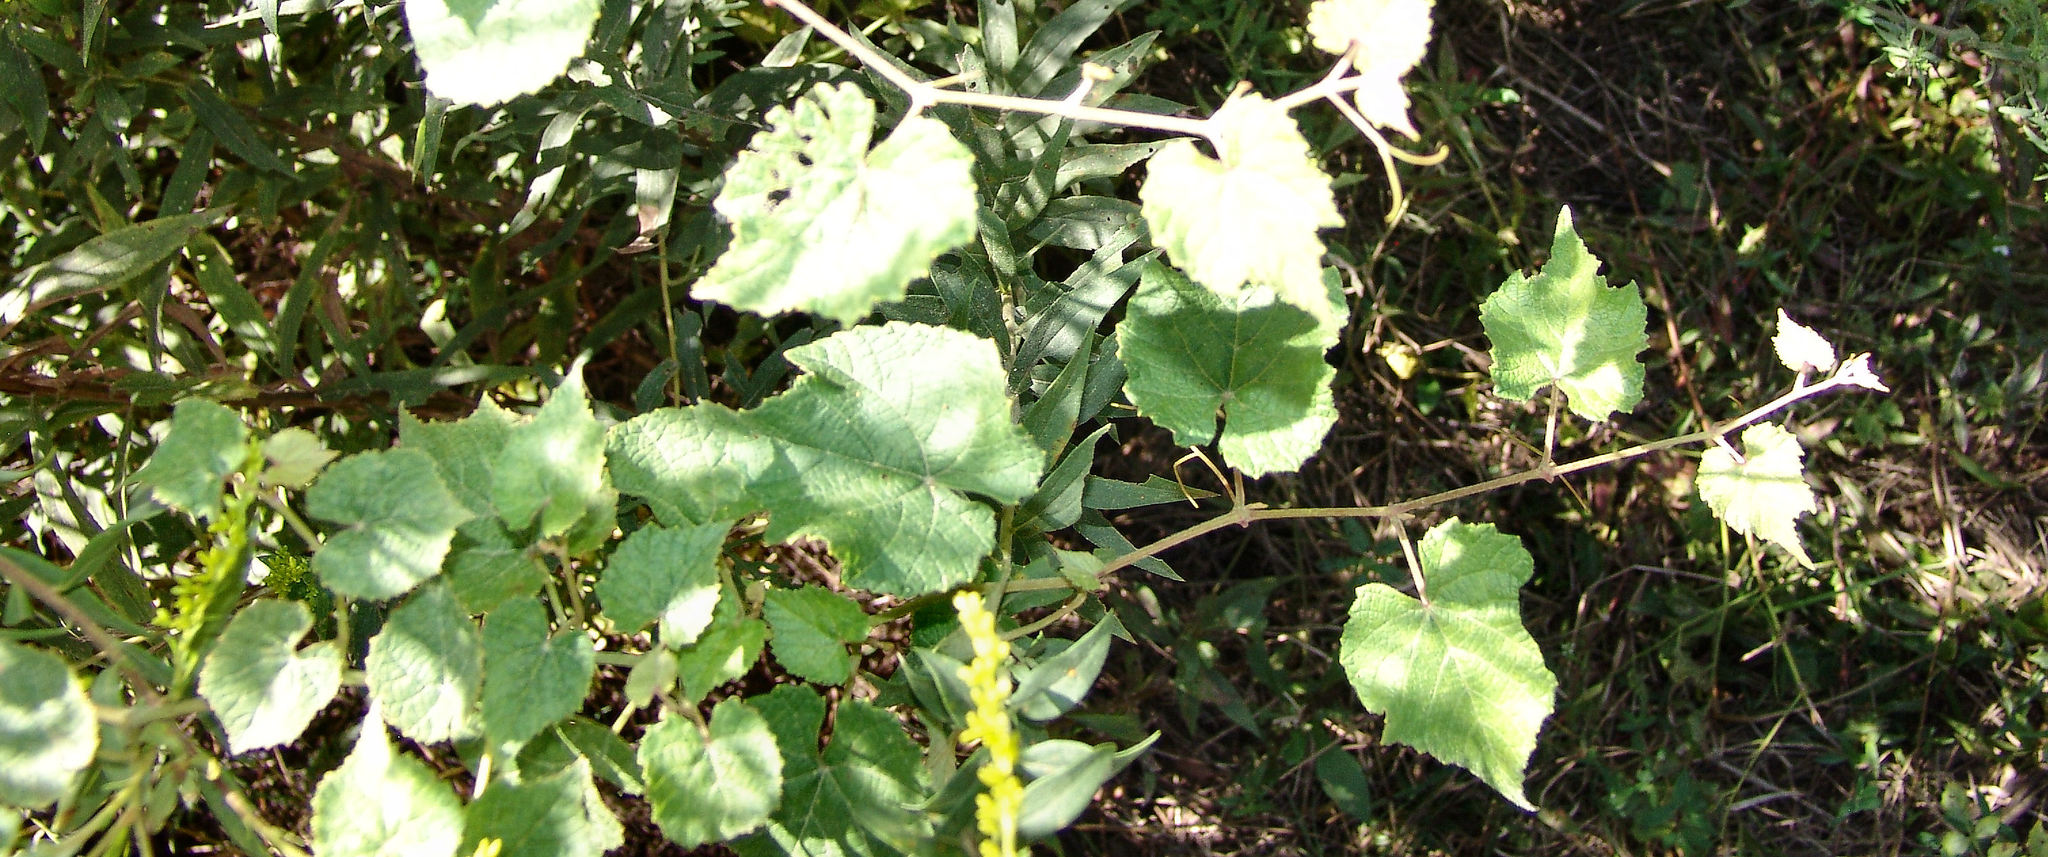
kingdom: Plantae
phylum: Tracheophyta
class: Magnoliopsida
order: Vitales
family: Vitaceae
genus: Vitis
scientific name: Vitis cinerea
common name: Ashy grape
